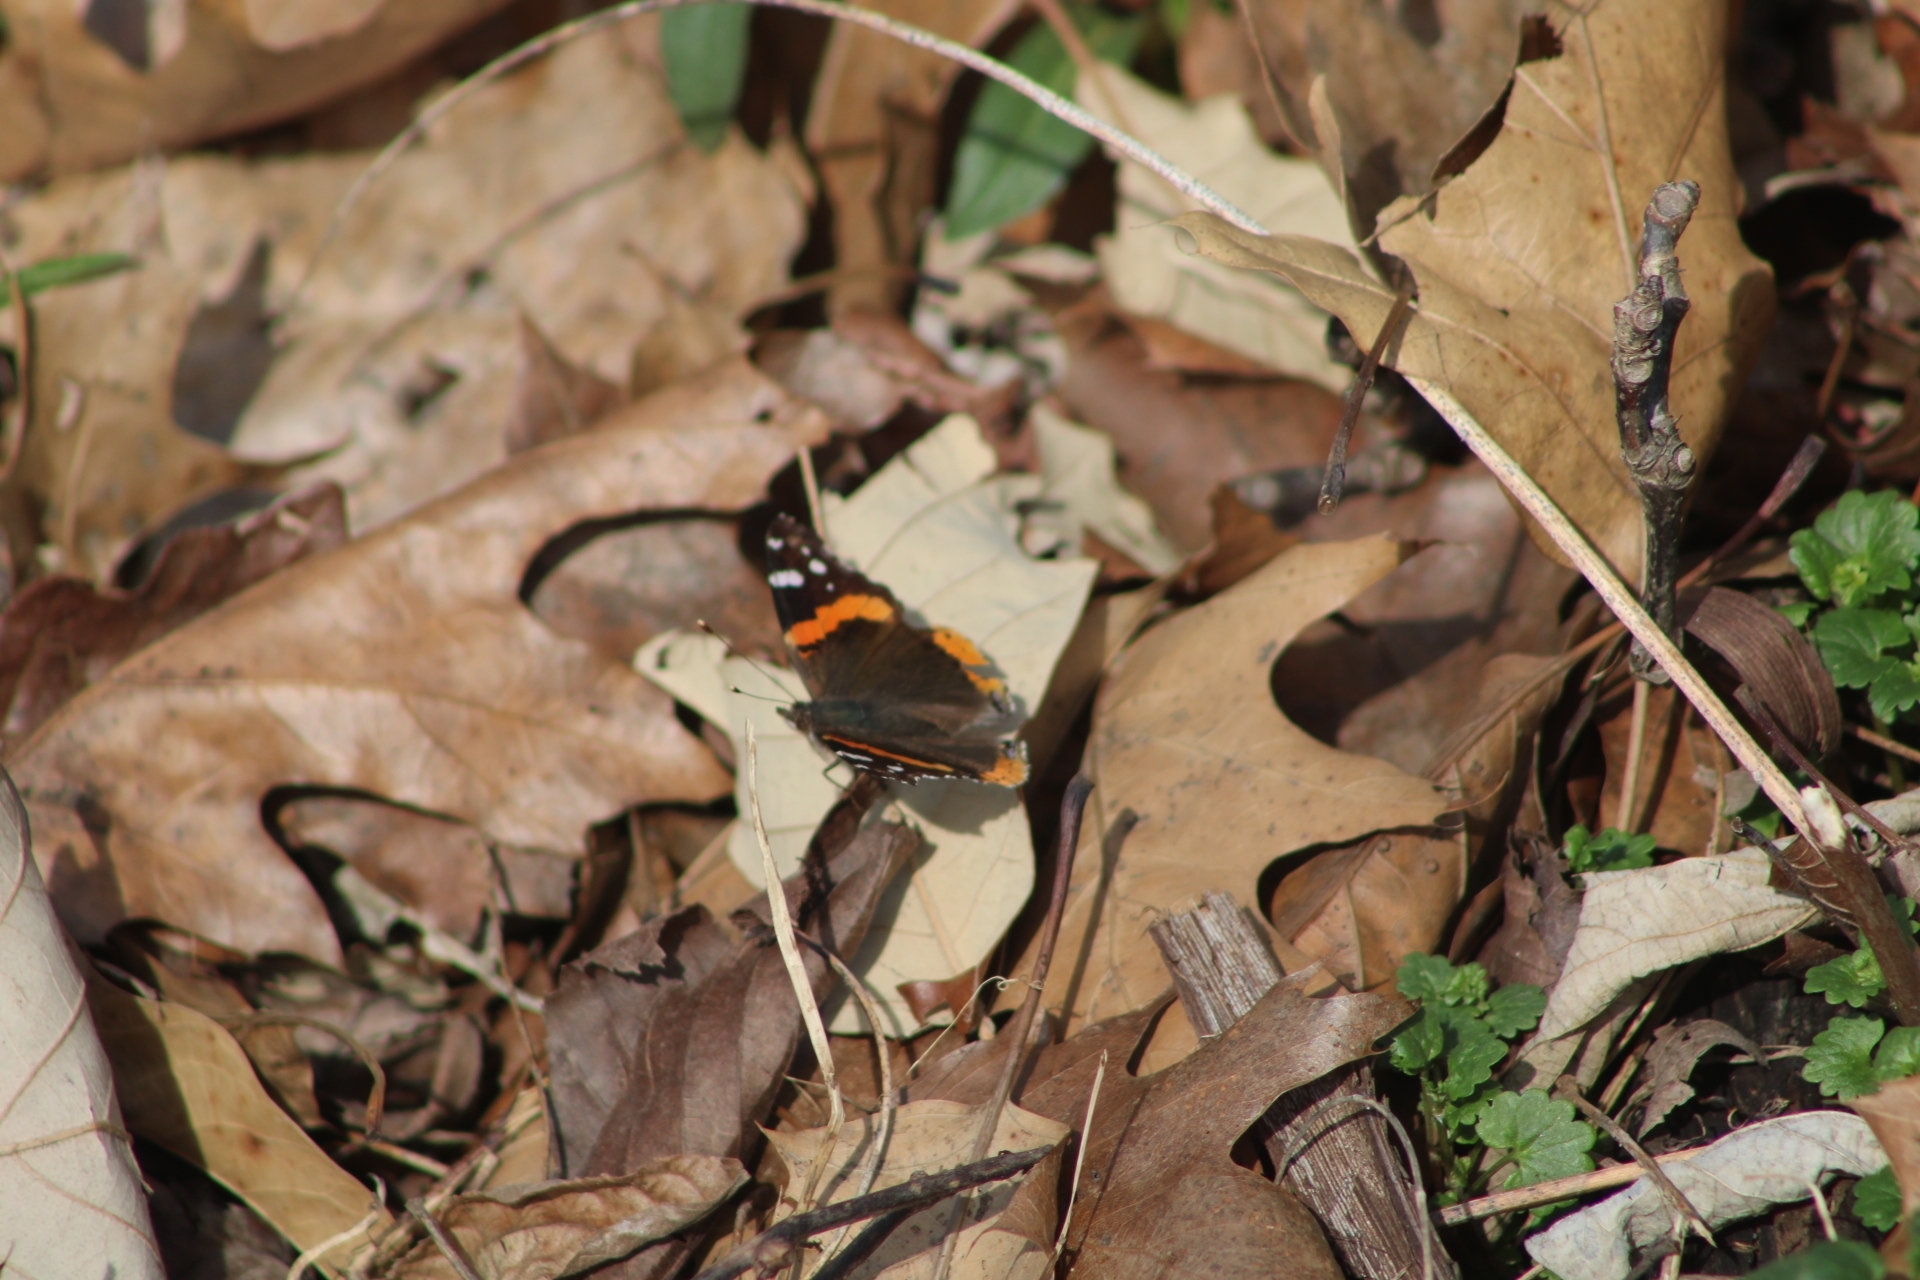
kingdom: Animalia
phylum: Arthropoda
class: Insecta
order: Lepidoptera
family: Nymphalidae
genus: Vanessa
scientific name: Vanessa atalanta
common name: Red admiral
